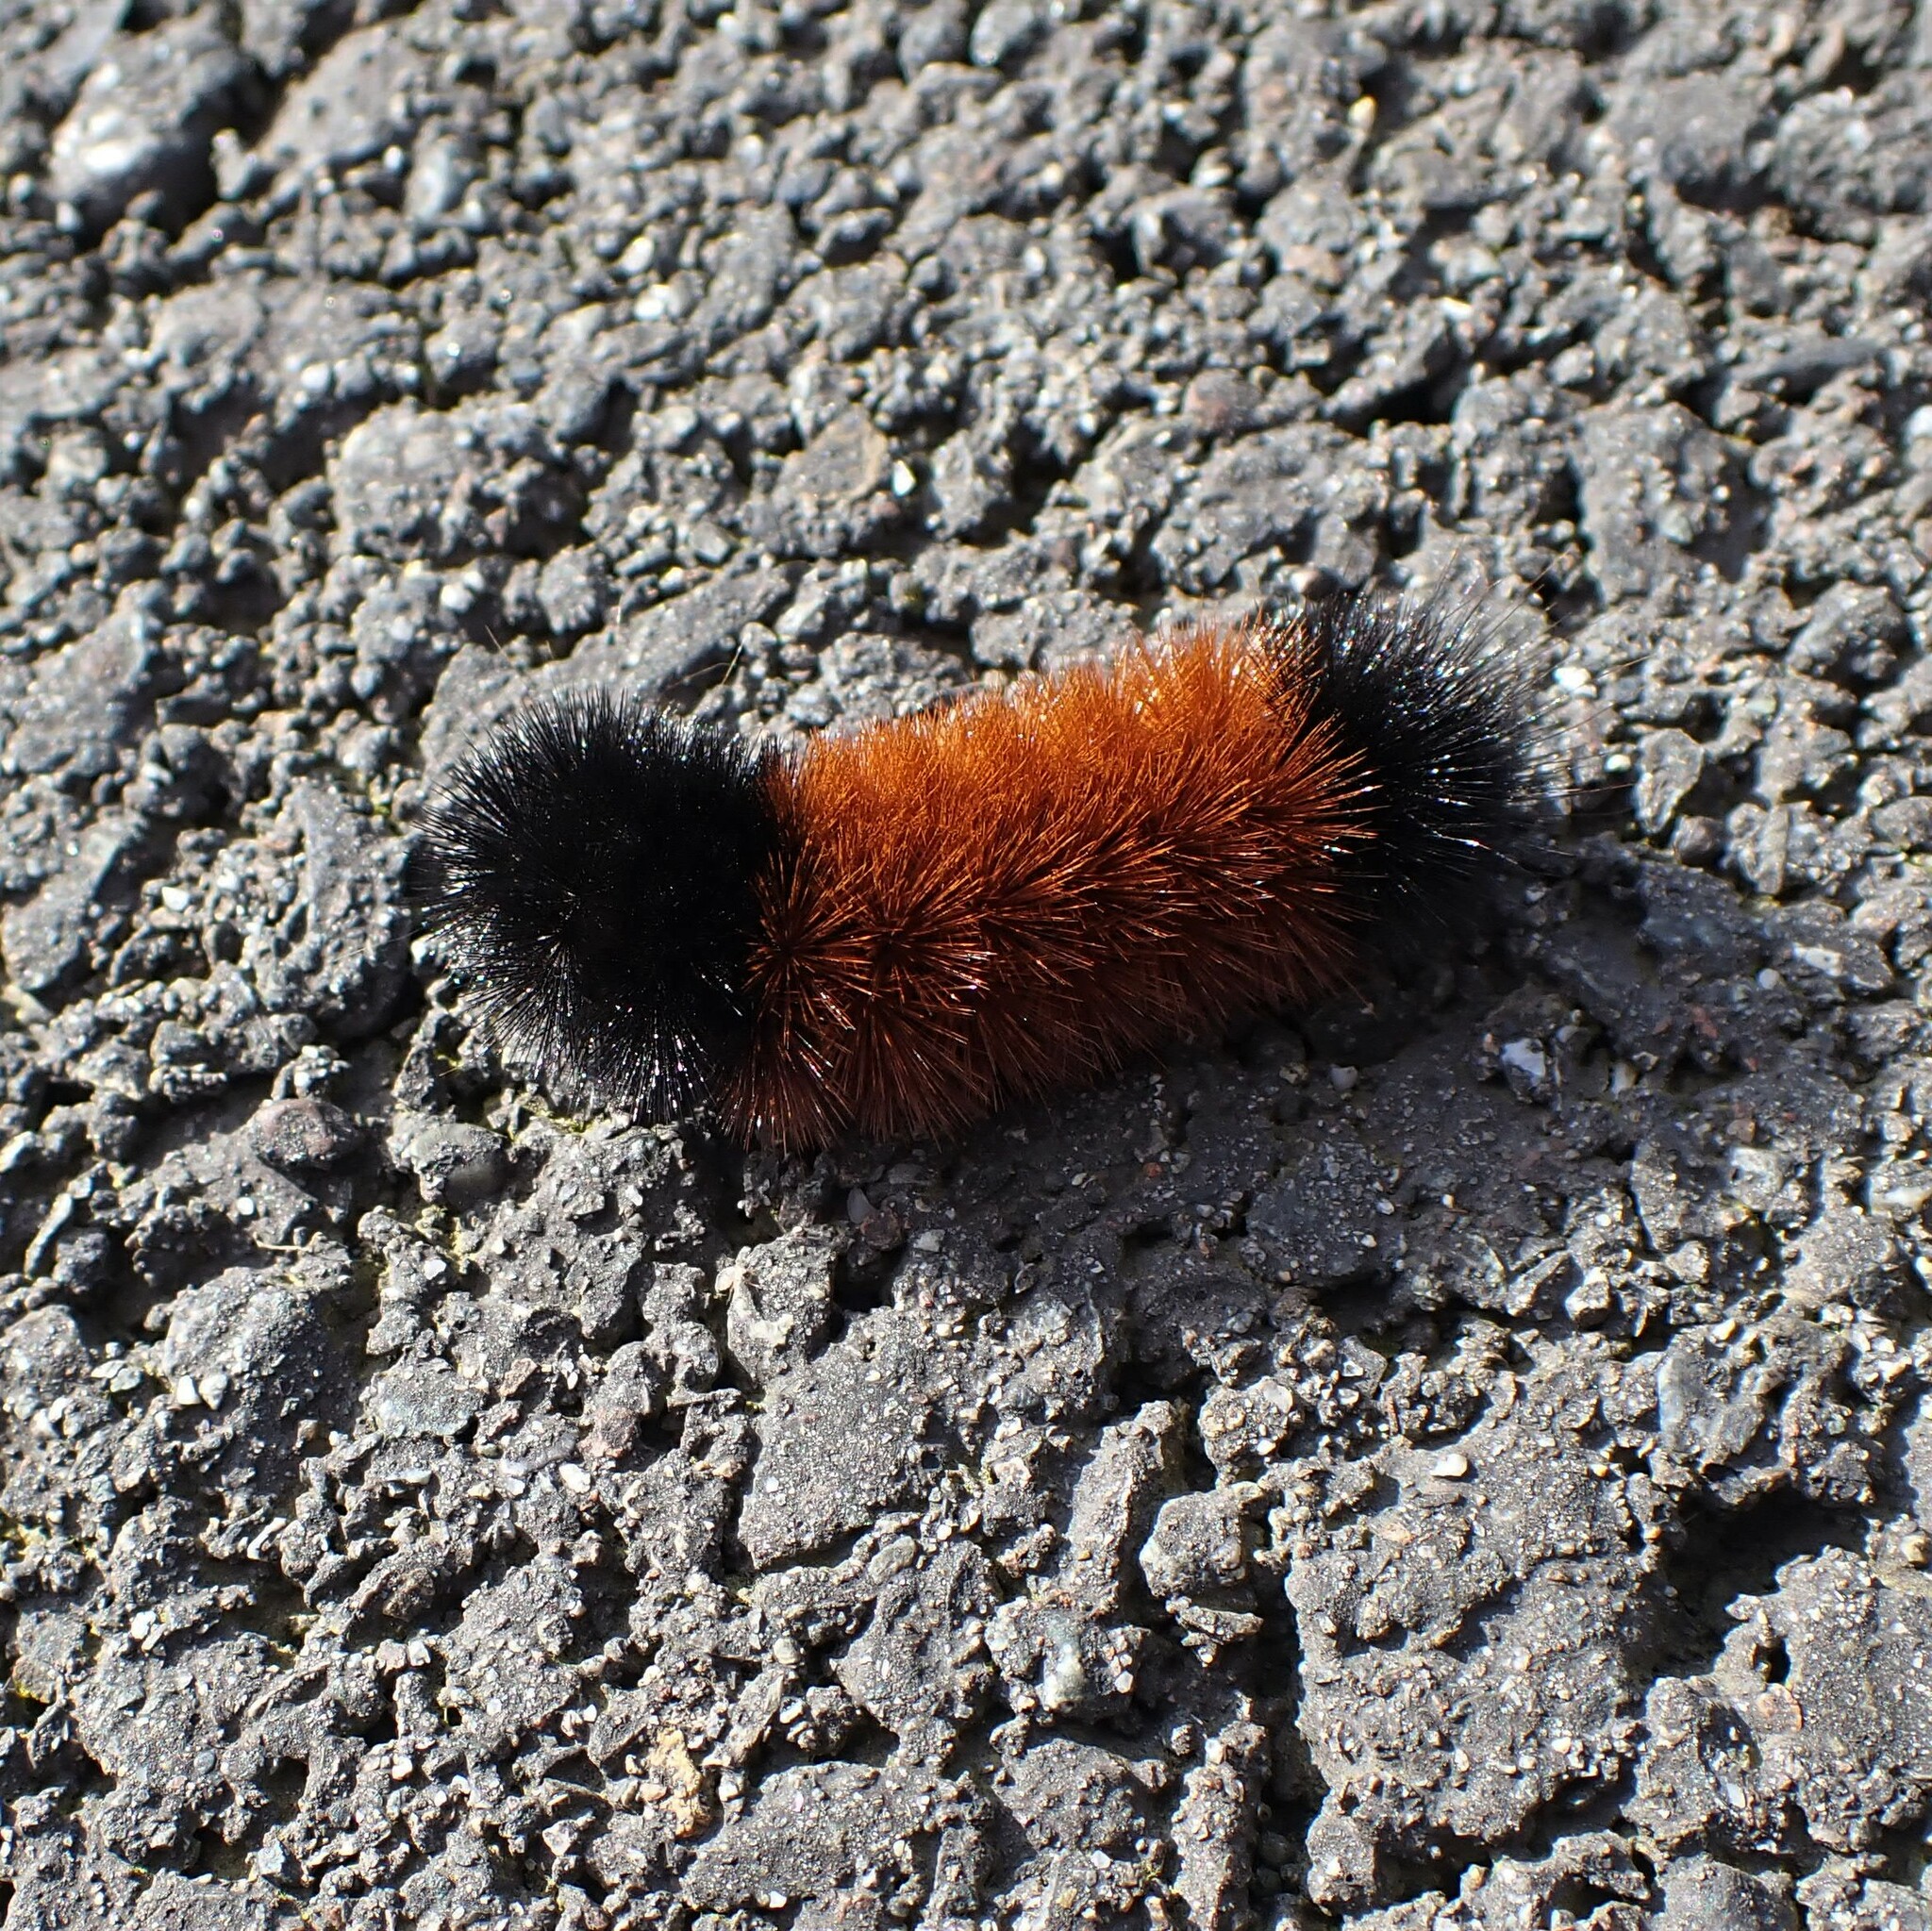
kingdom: Animalia
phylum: Arthropoda
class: Insecta
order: Lepidoptera
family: Erebidae
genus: Pyrrharctia
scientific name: Pyrrharctia isabella
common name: Isabella tiger moth
